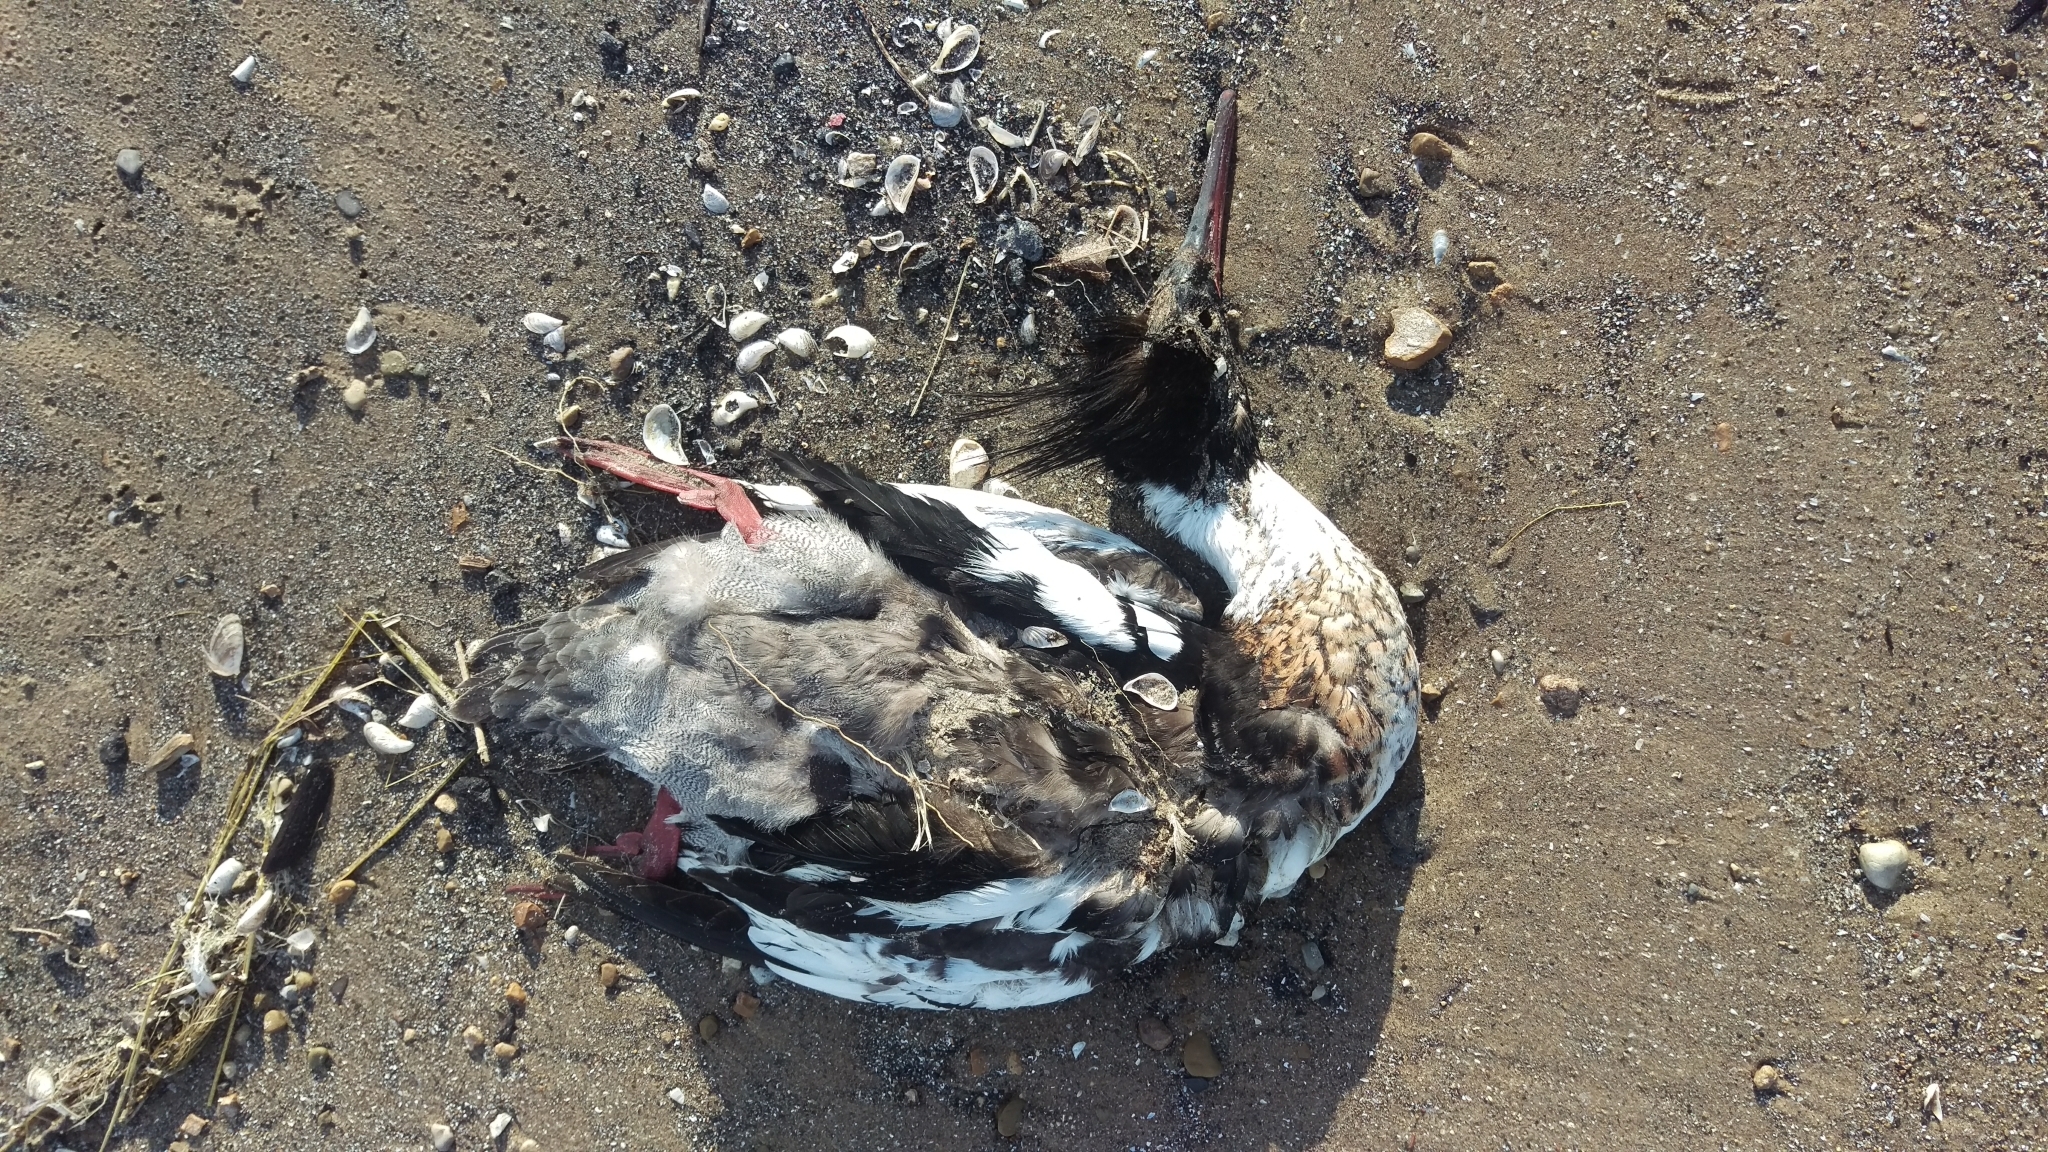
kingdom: Animalia
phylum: Chordata
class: Aves
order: Anseriformes
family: Anatidae
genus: Mergus
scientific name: Mergus serrator
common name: Red-breasted merganser
